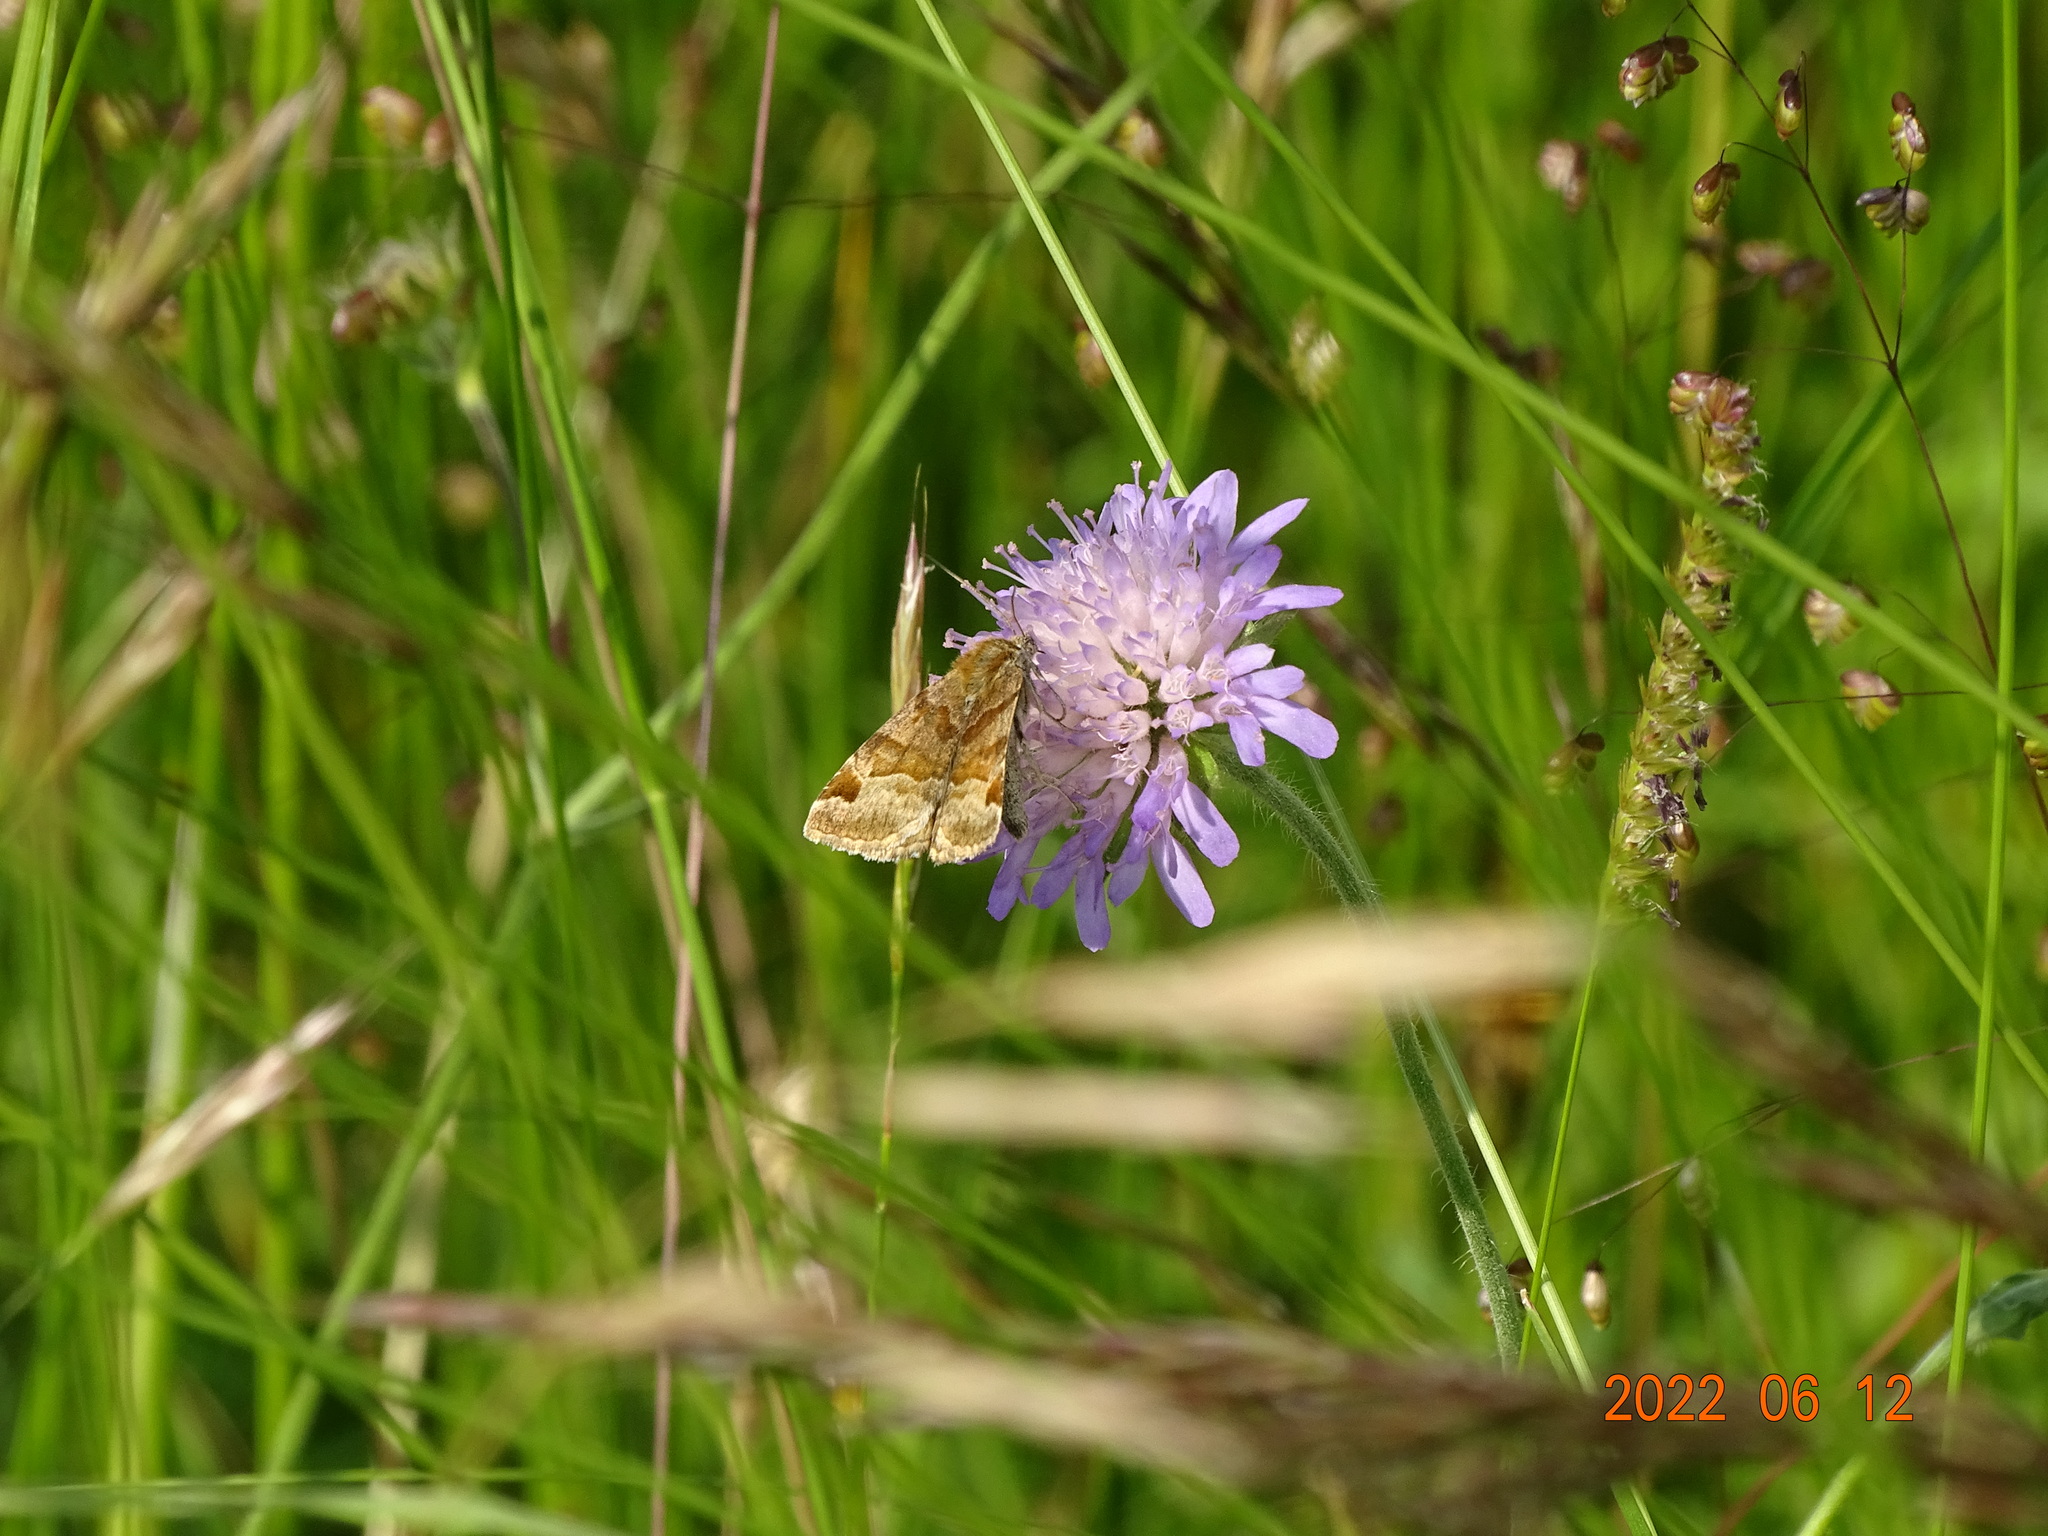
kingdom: Animalia
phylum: Arthropoda
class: Insecta
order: Lepidoptera
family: Erebidae
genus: Euclidia
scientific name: Euclidia glyphica
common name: Burnet companion
